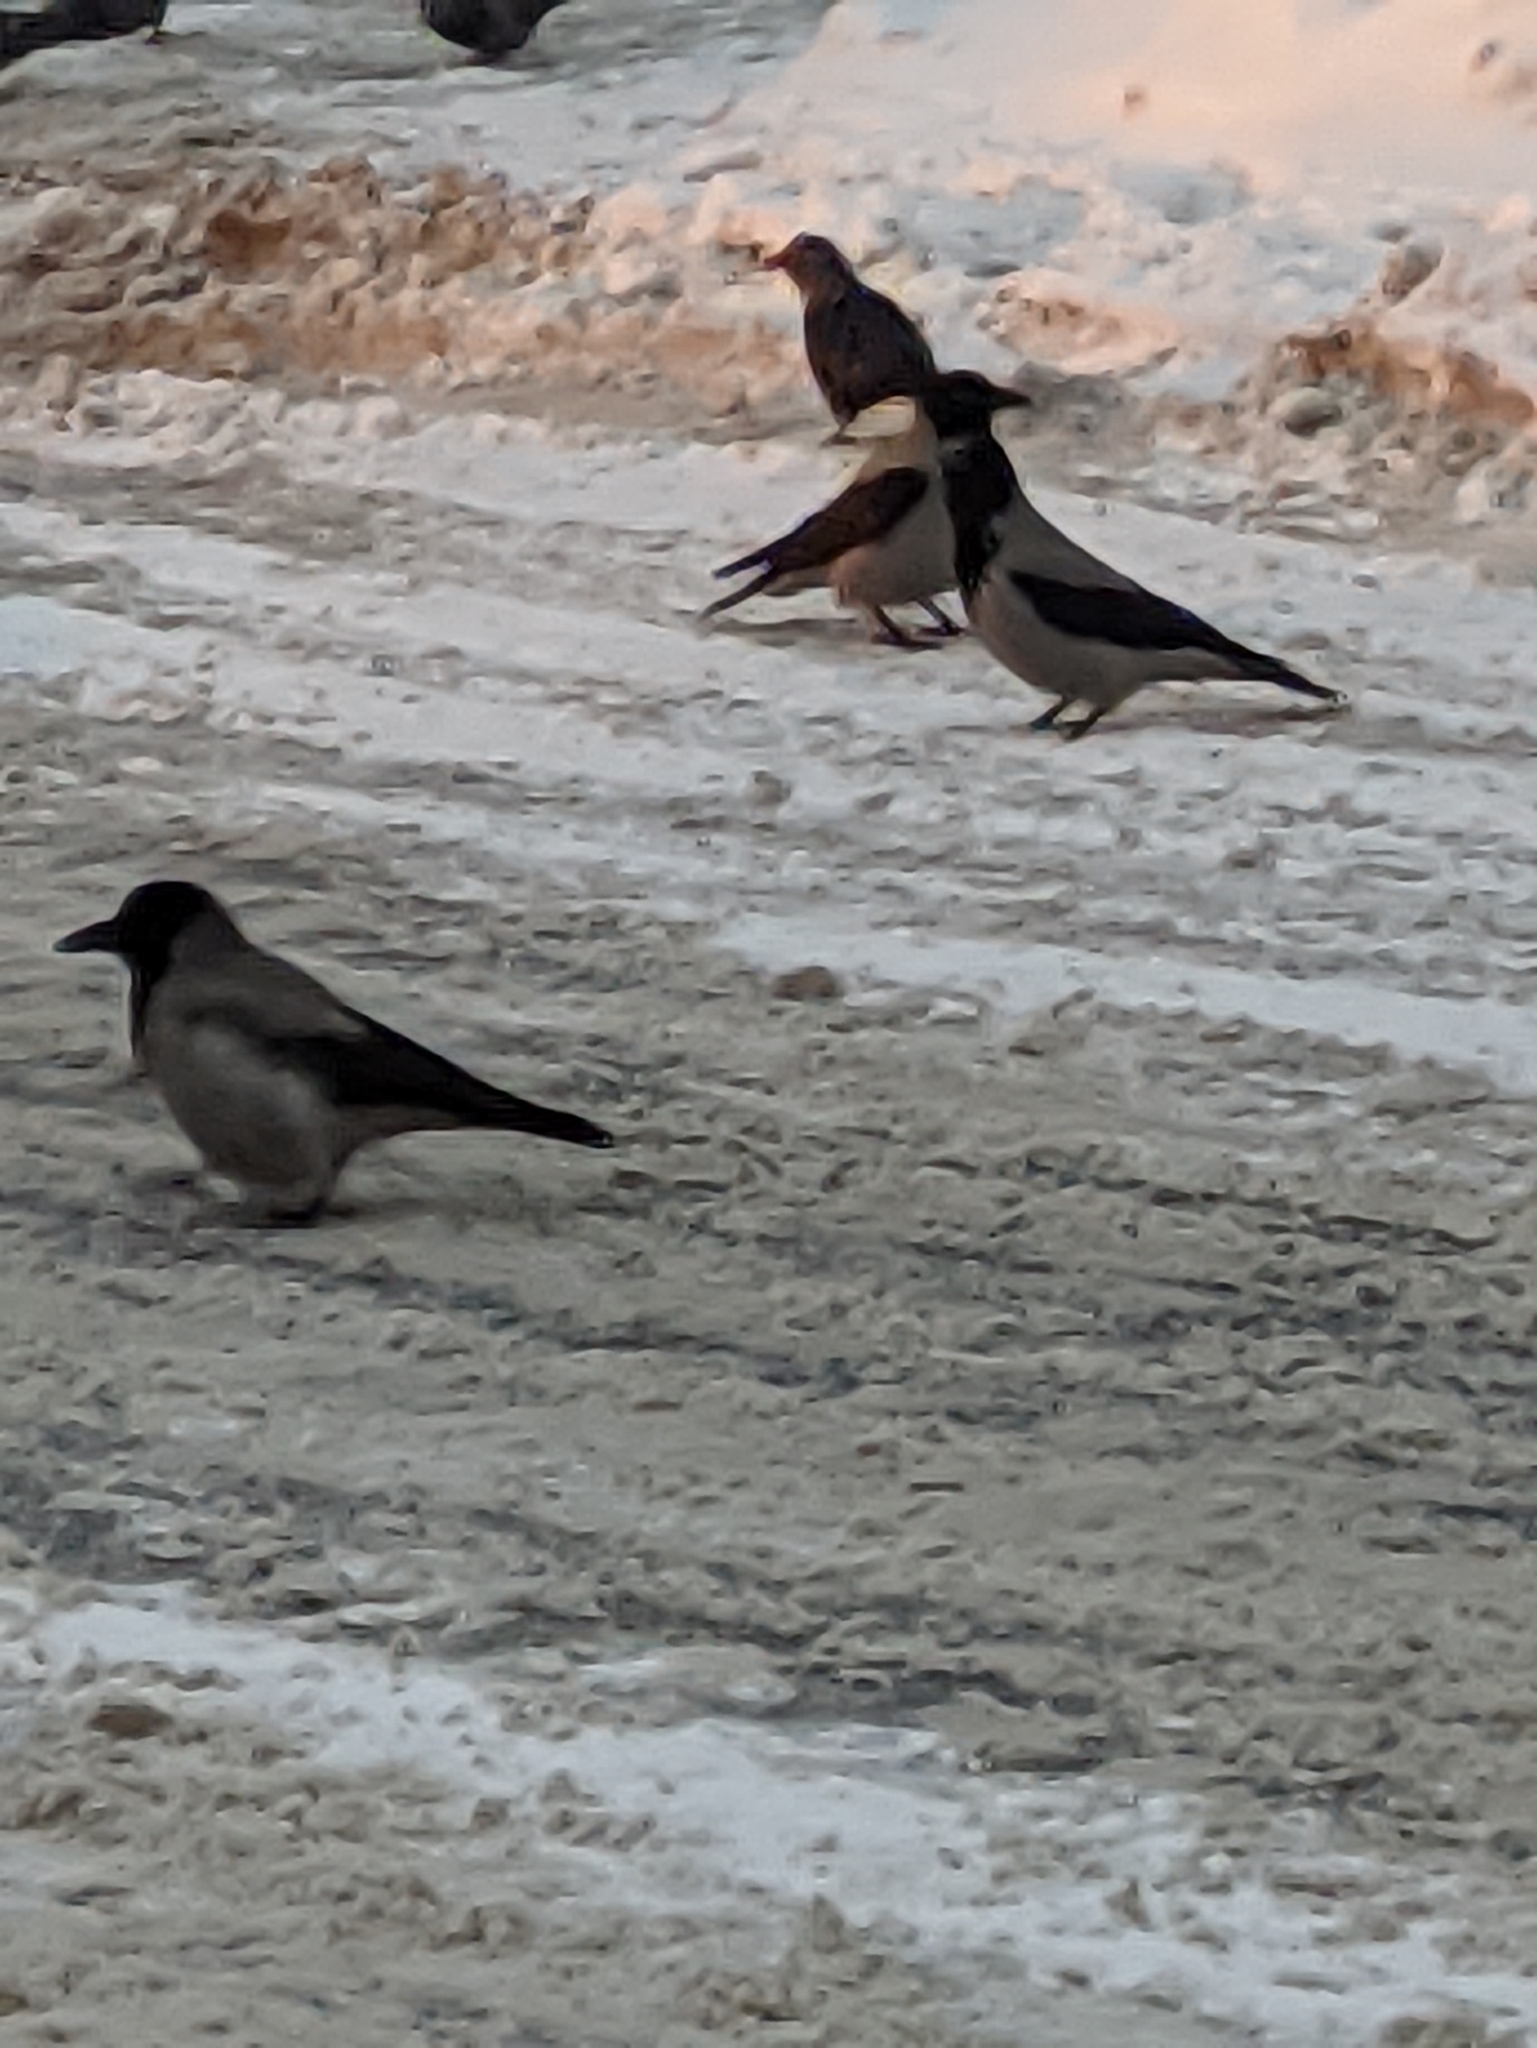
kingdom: Animalia
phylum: Chordata
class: Aves
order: Passeriformes
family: Corvidae
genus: Corvus
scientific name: Corvus cornix
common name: Hooded crow
